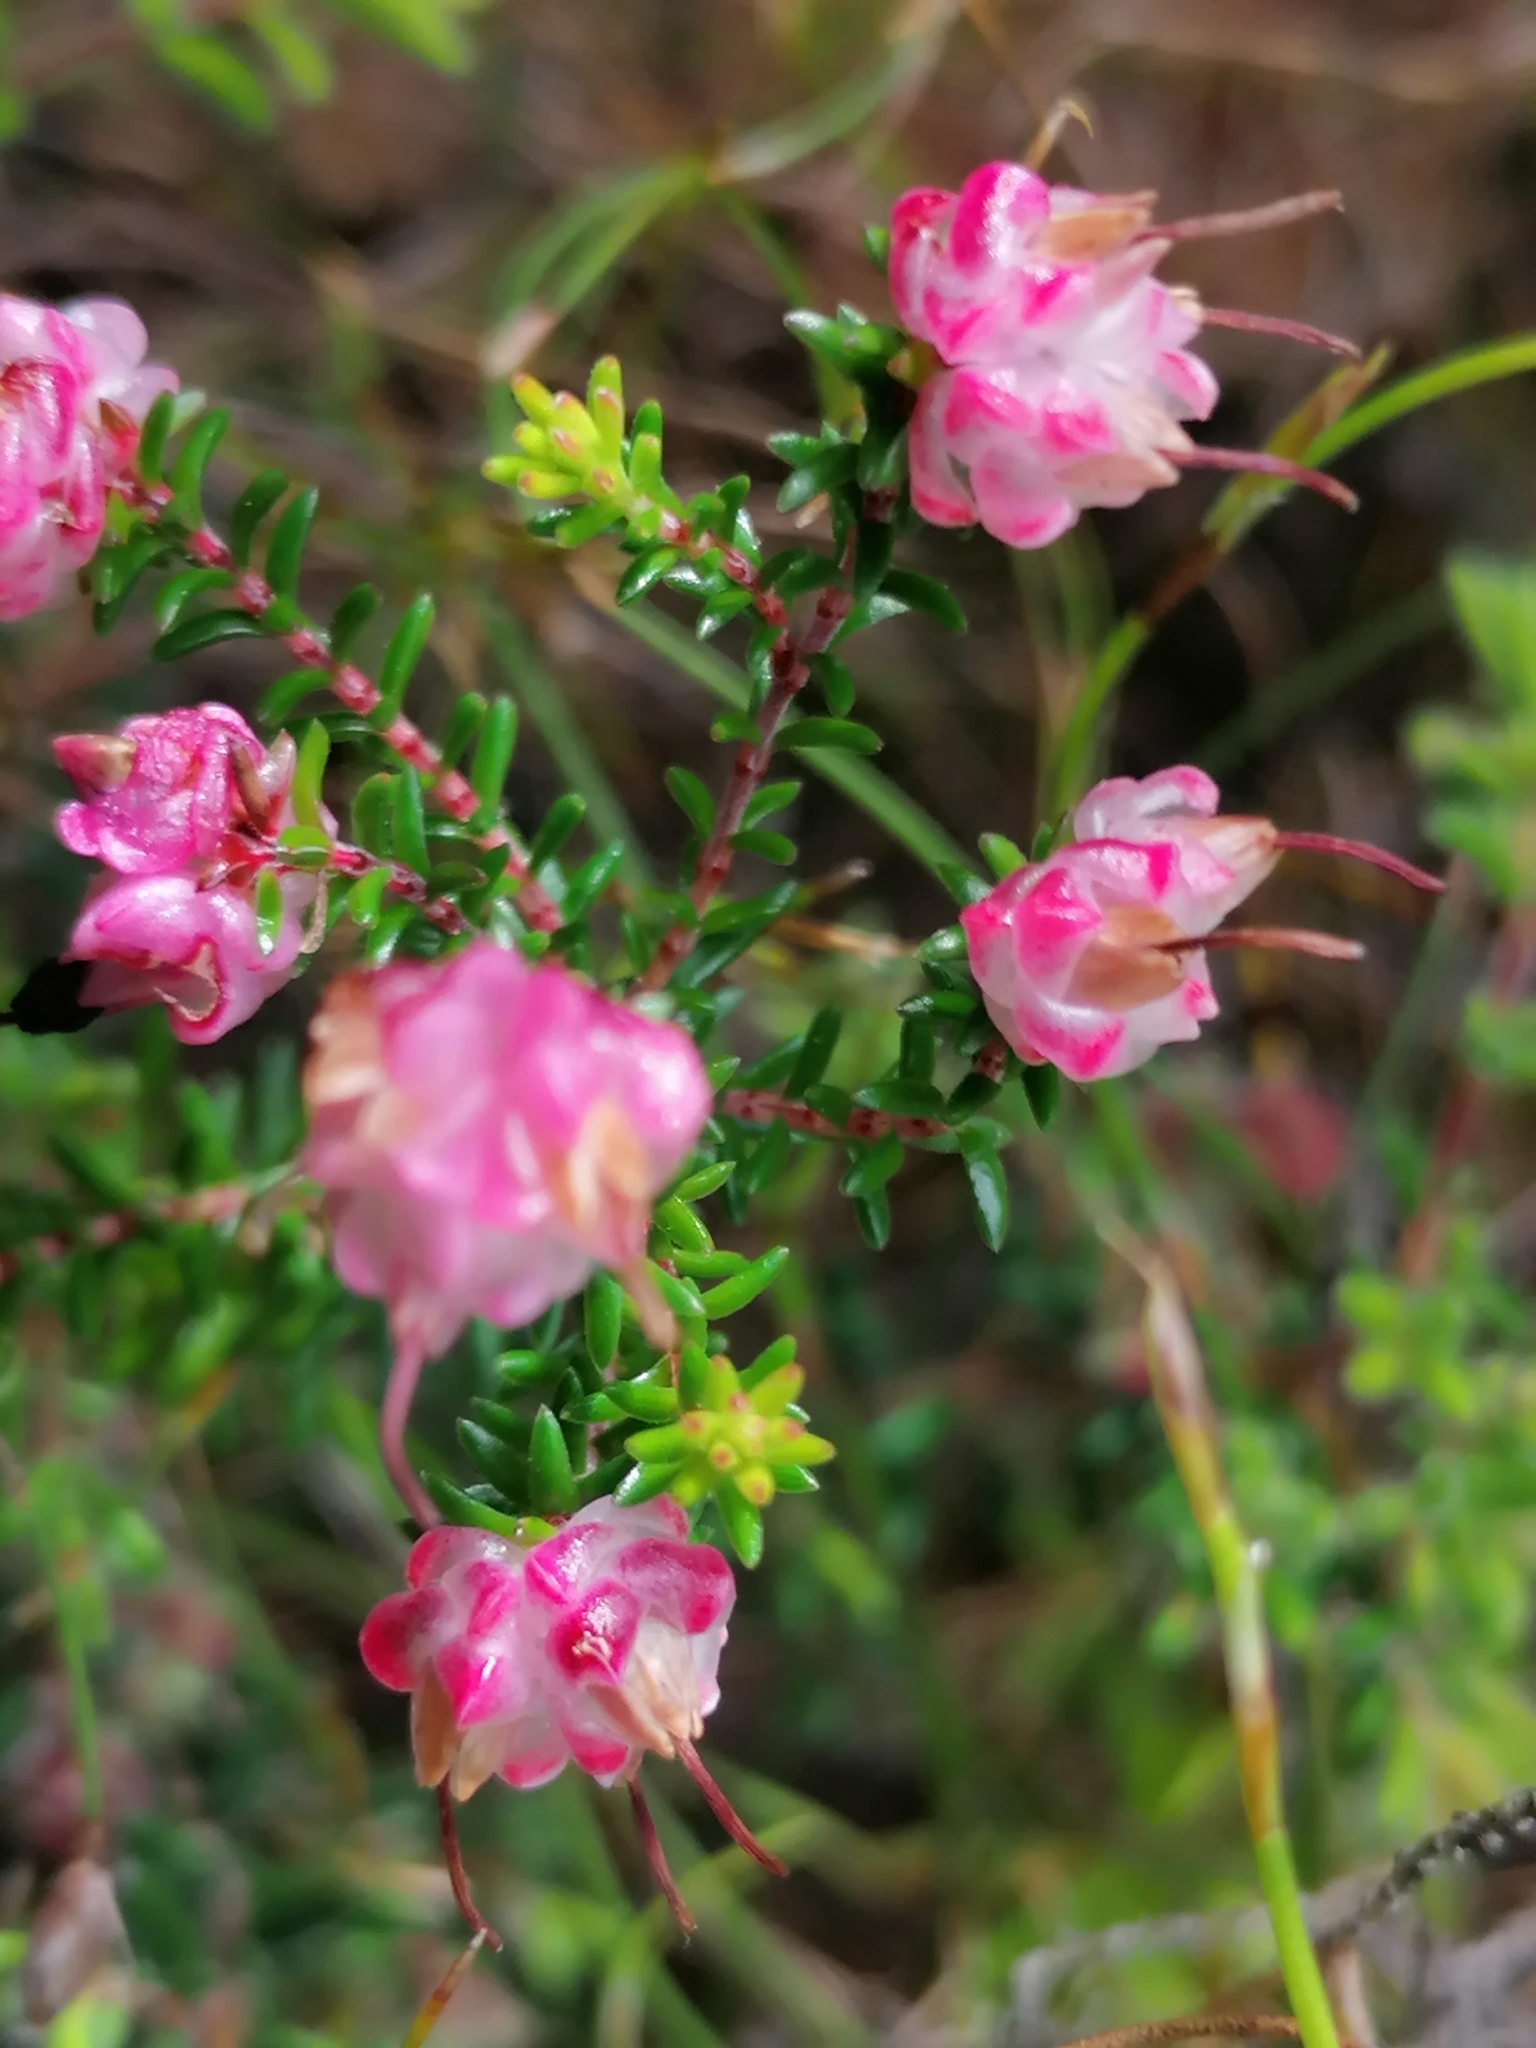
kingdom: Plantae
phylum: Tracheophyta
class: Magnoliopsida
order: Ericales
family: Ericaceae
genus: Erica
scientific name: Erica spumosa
